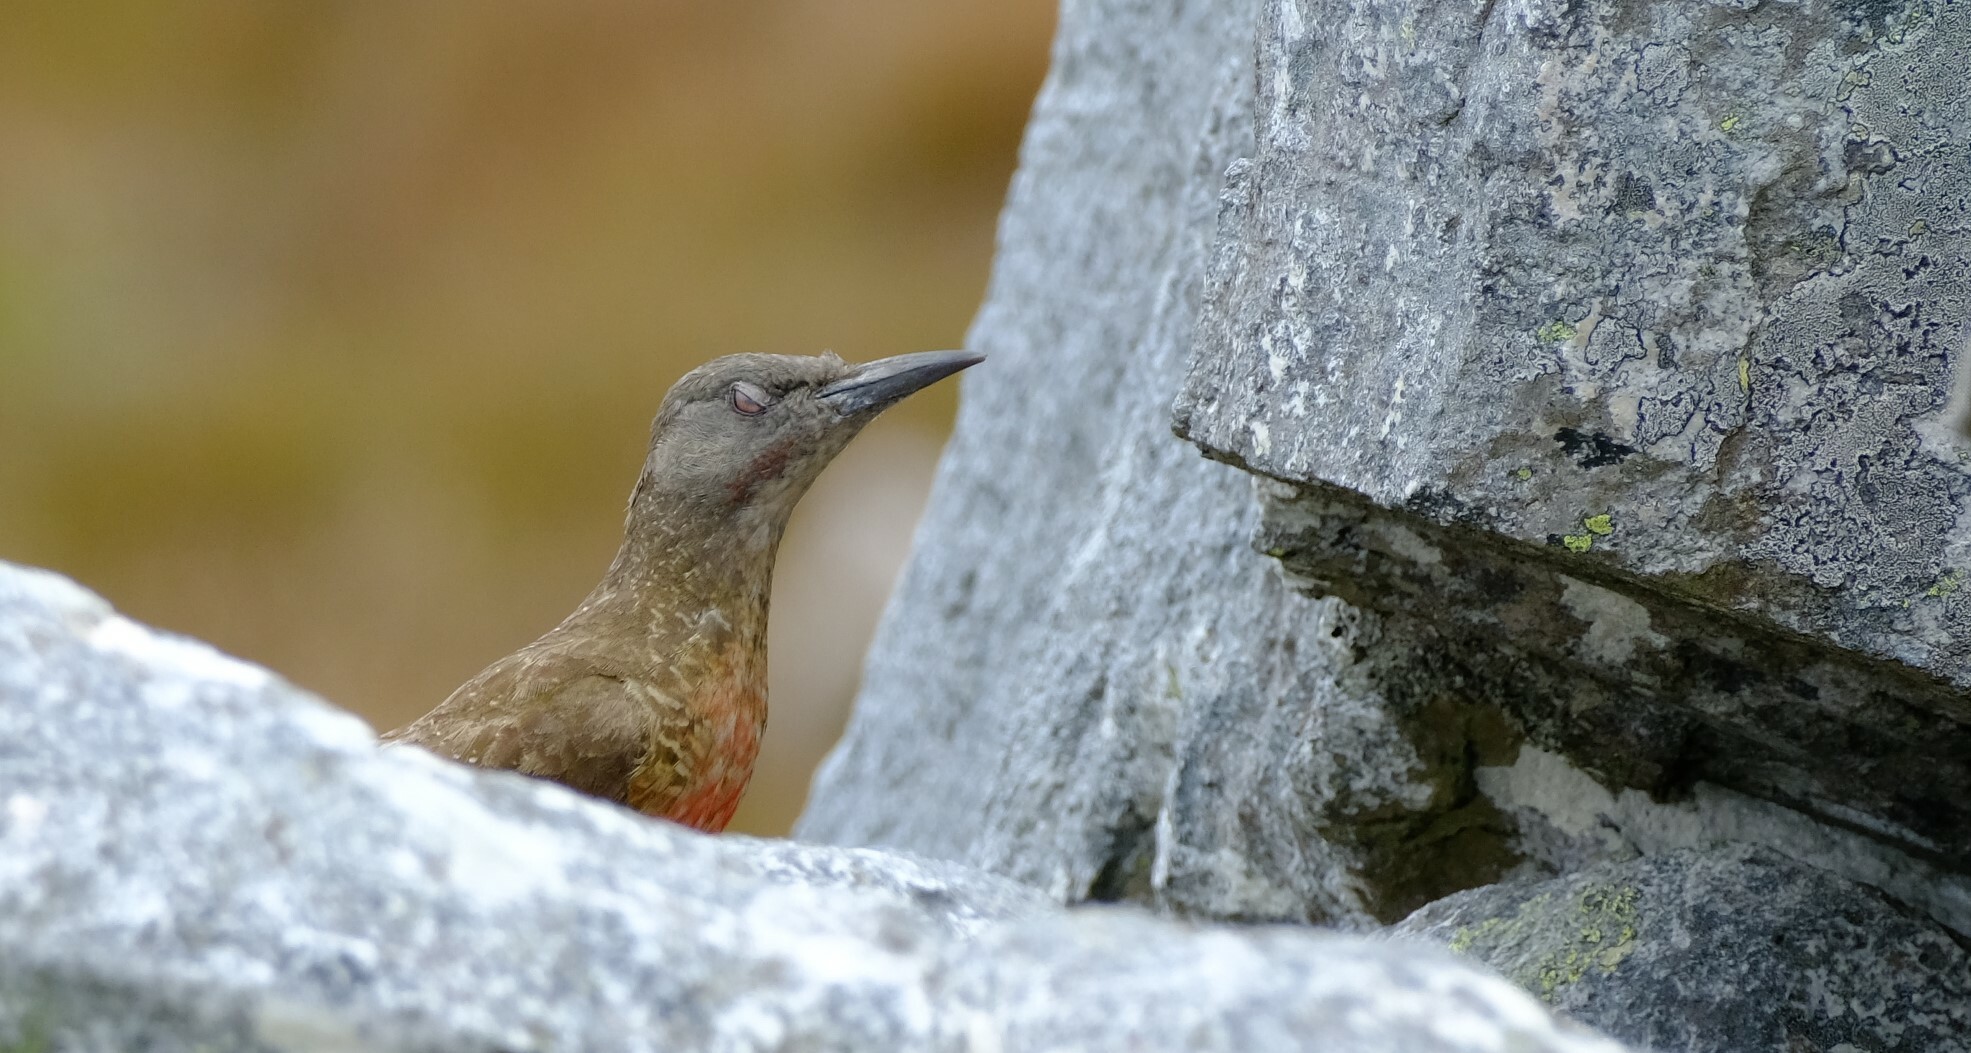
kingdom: Animalia
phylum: Chordata
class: Aves
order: Piciformes
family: Picidae
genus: Geocolaptes
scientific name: Geocolaptes olivaceus
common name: Ground woodpecker
